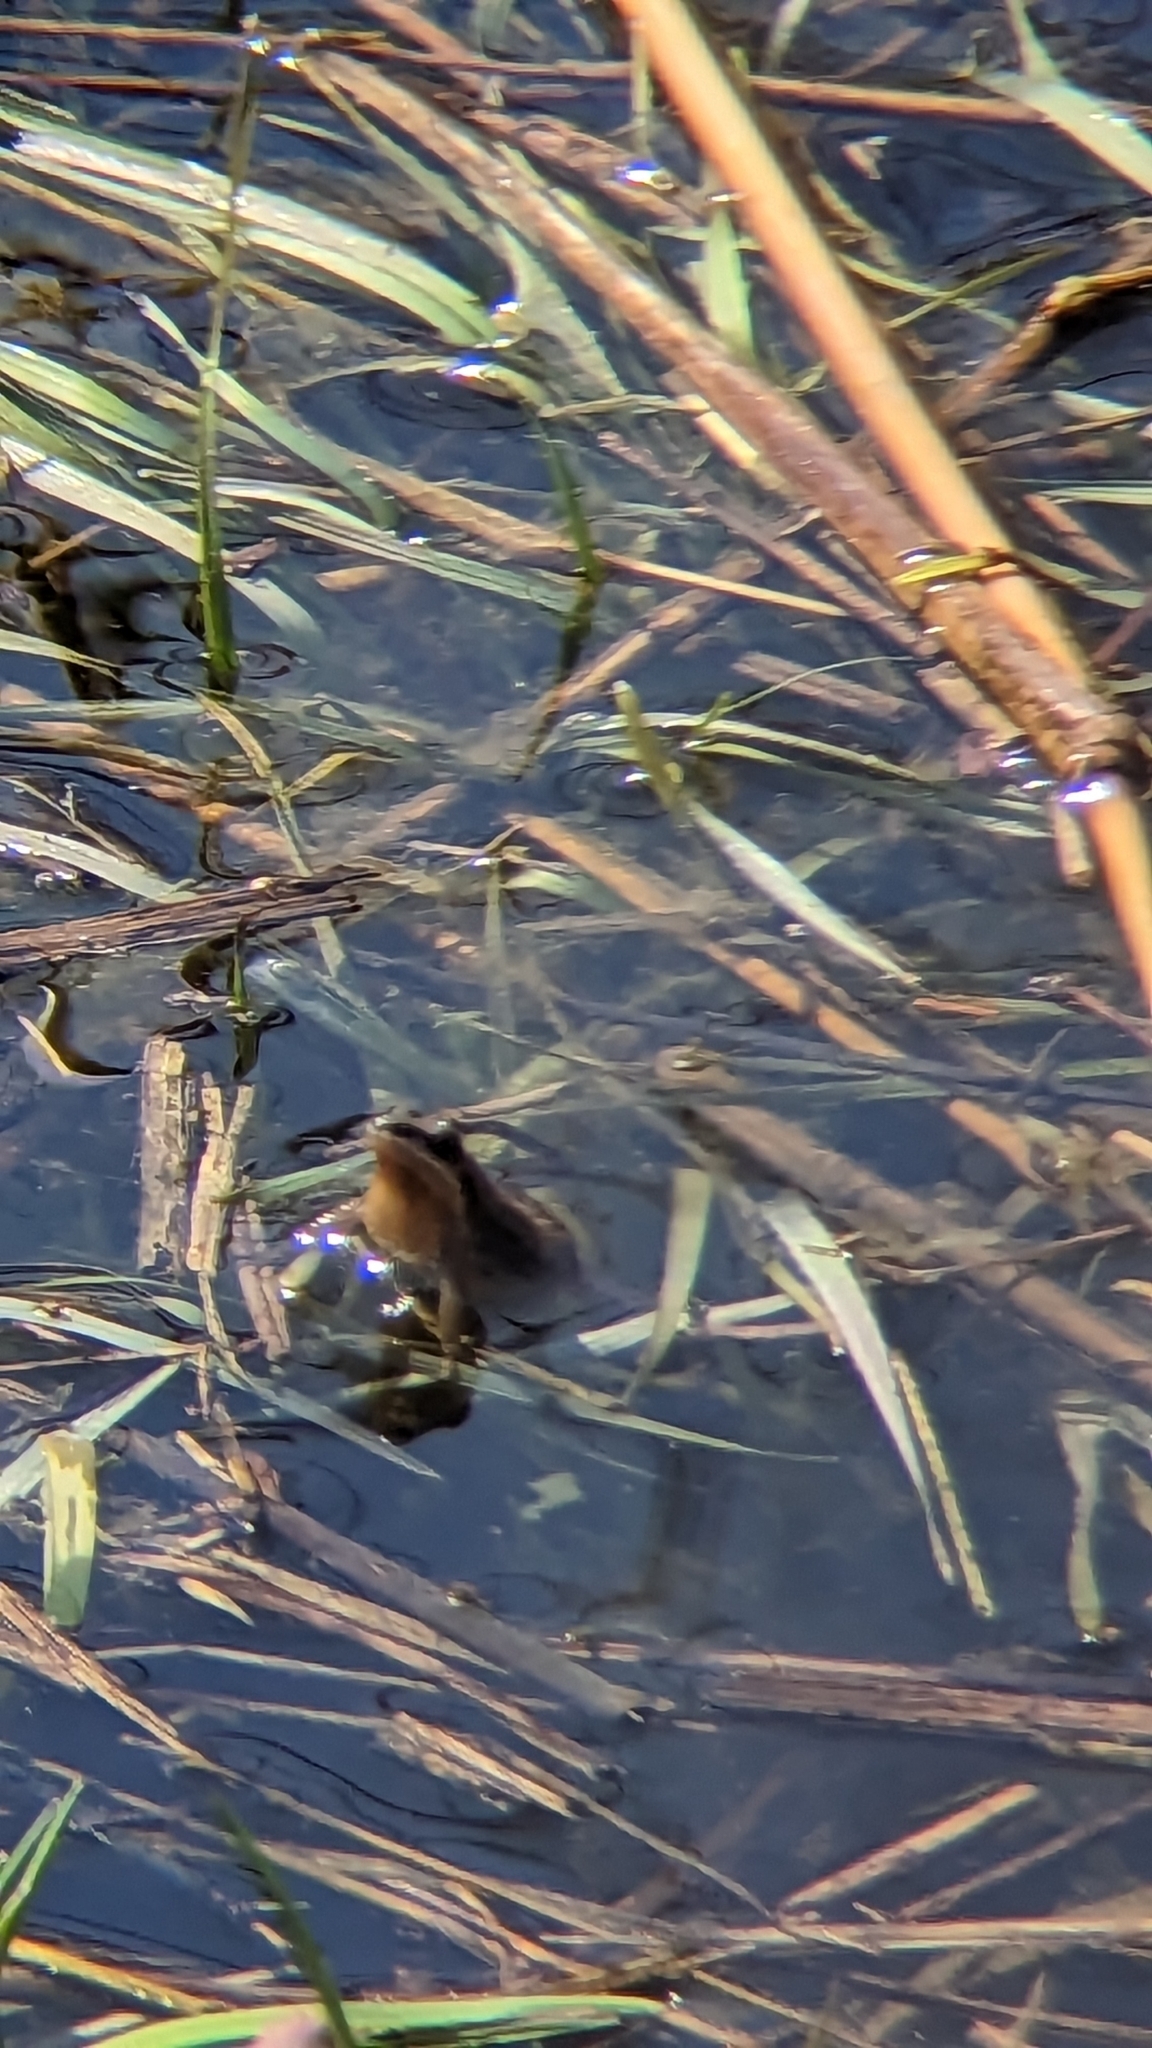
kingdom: Animalia
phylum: Chordata
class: Amphibia
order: Anura
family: Hylidae
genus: Pseudacris
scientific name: Pseudacris triseriata
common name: Western chorus frog
